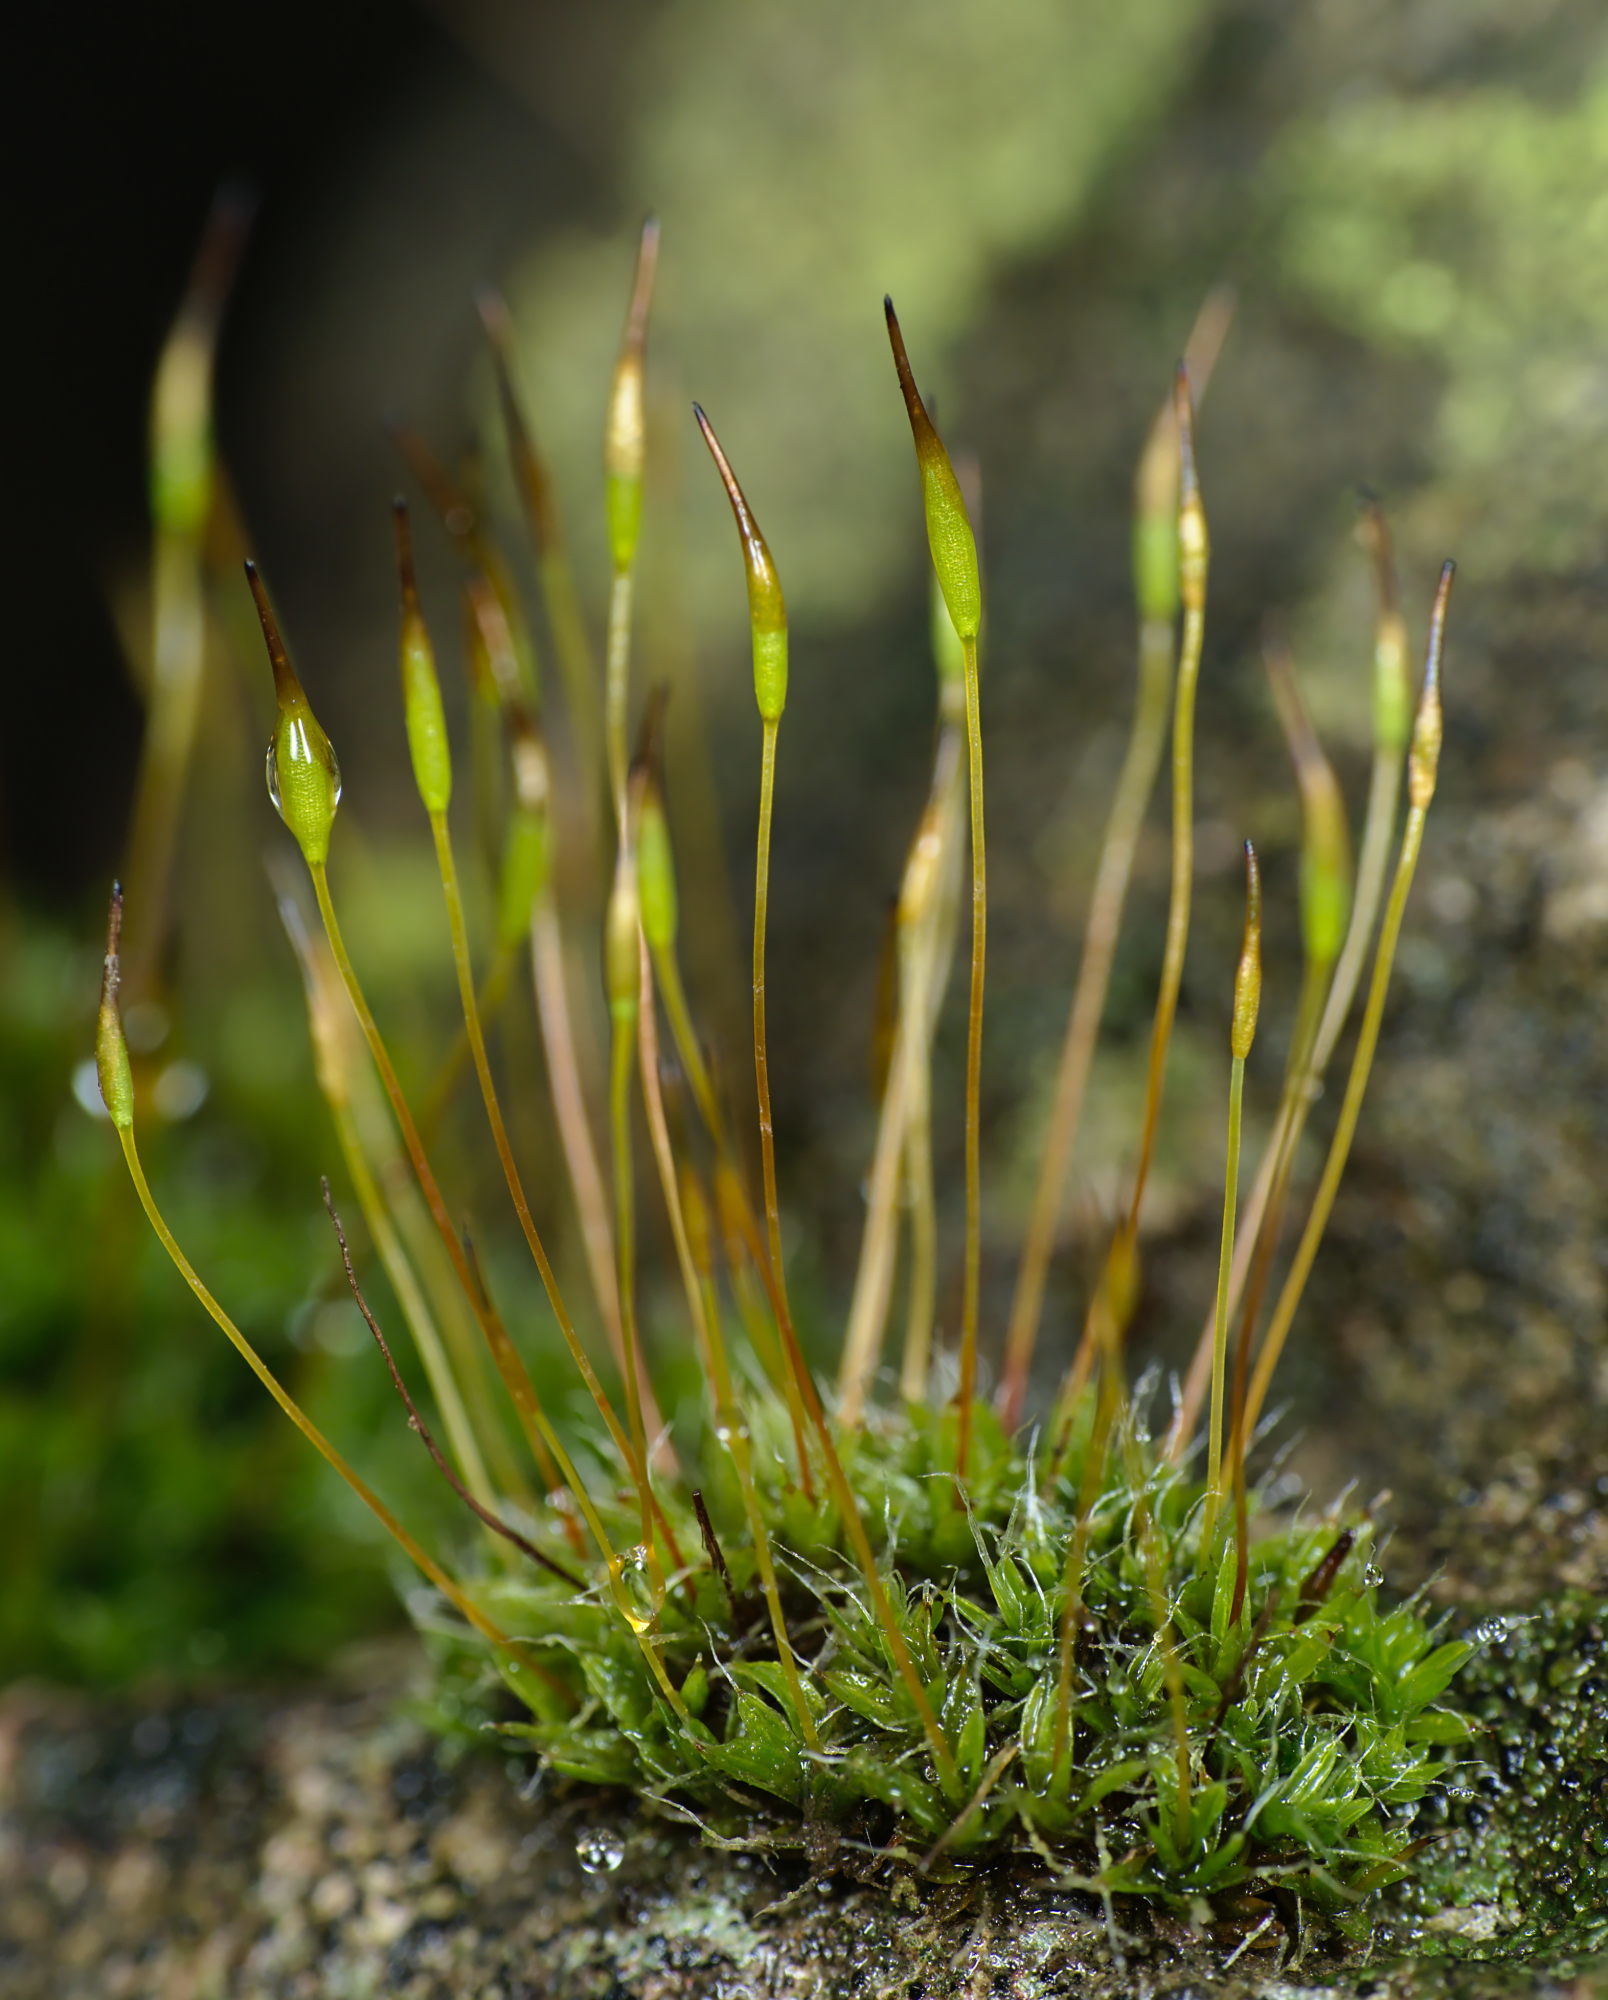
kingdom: Plantae
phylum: Bryophyta
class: Bryopsida
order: Pottiales
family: Pottiaceae
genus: Tortula
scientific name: Tortula muralis
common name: Wall screw-moss
